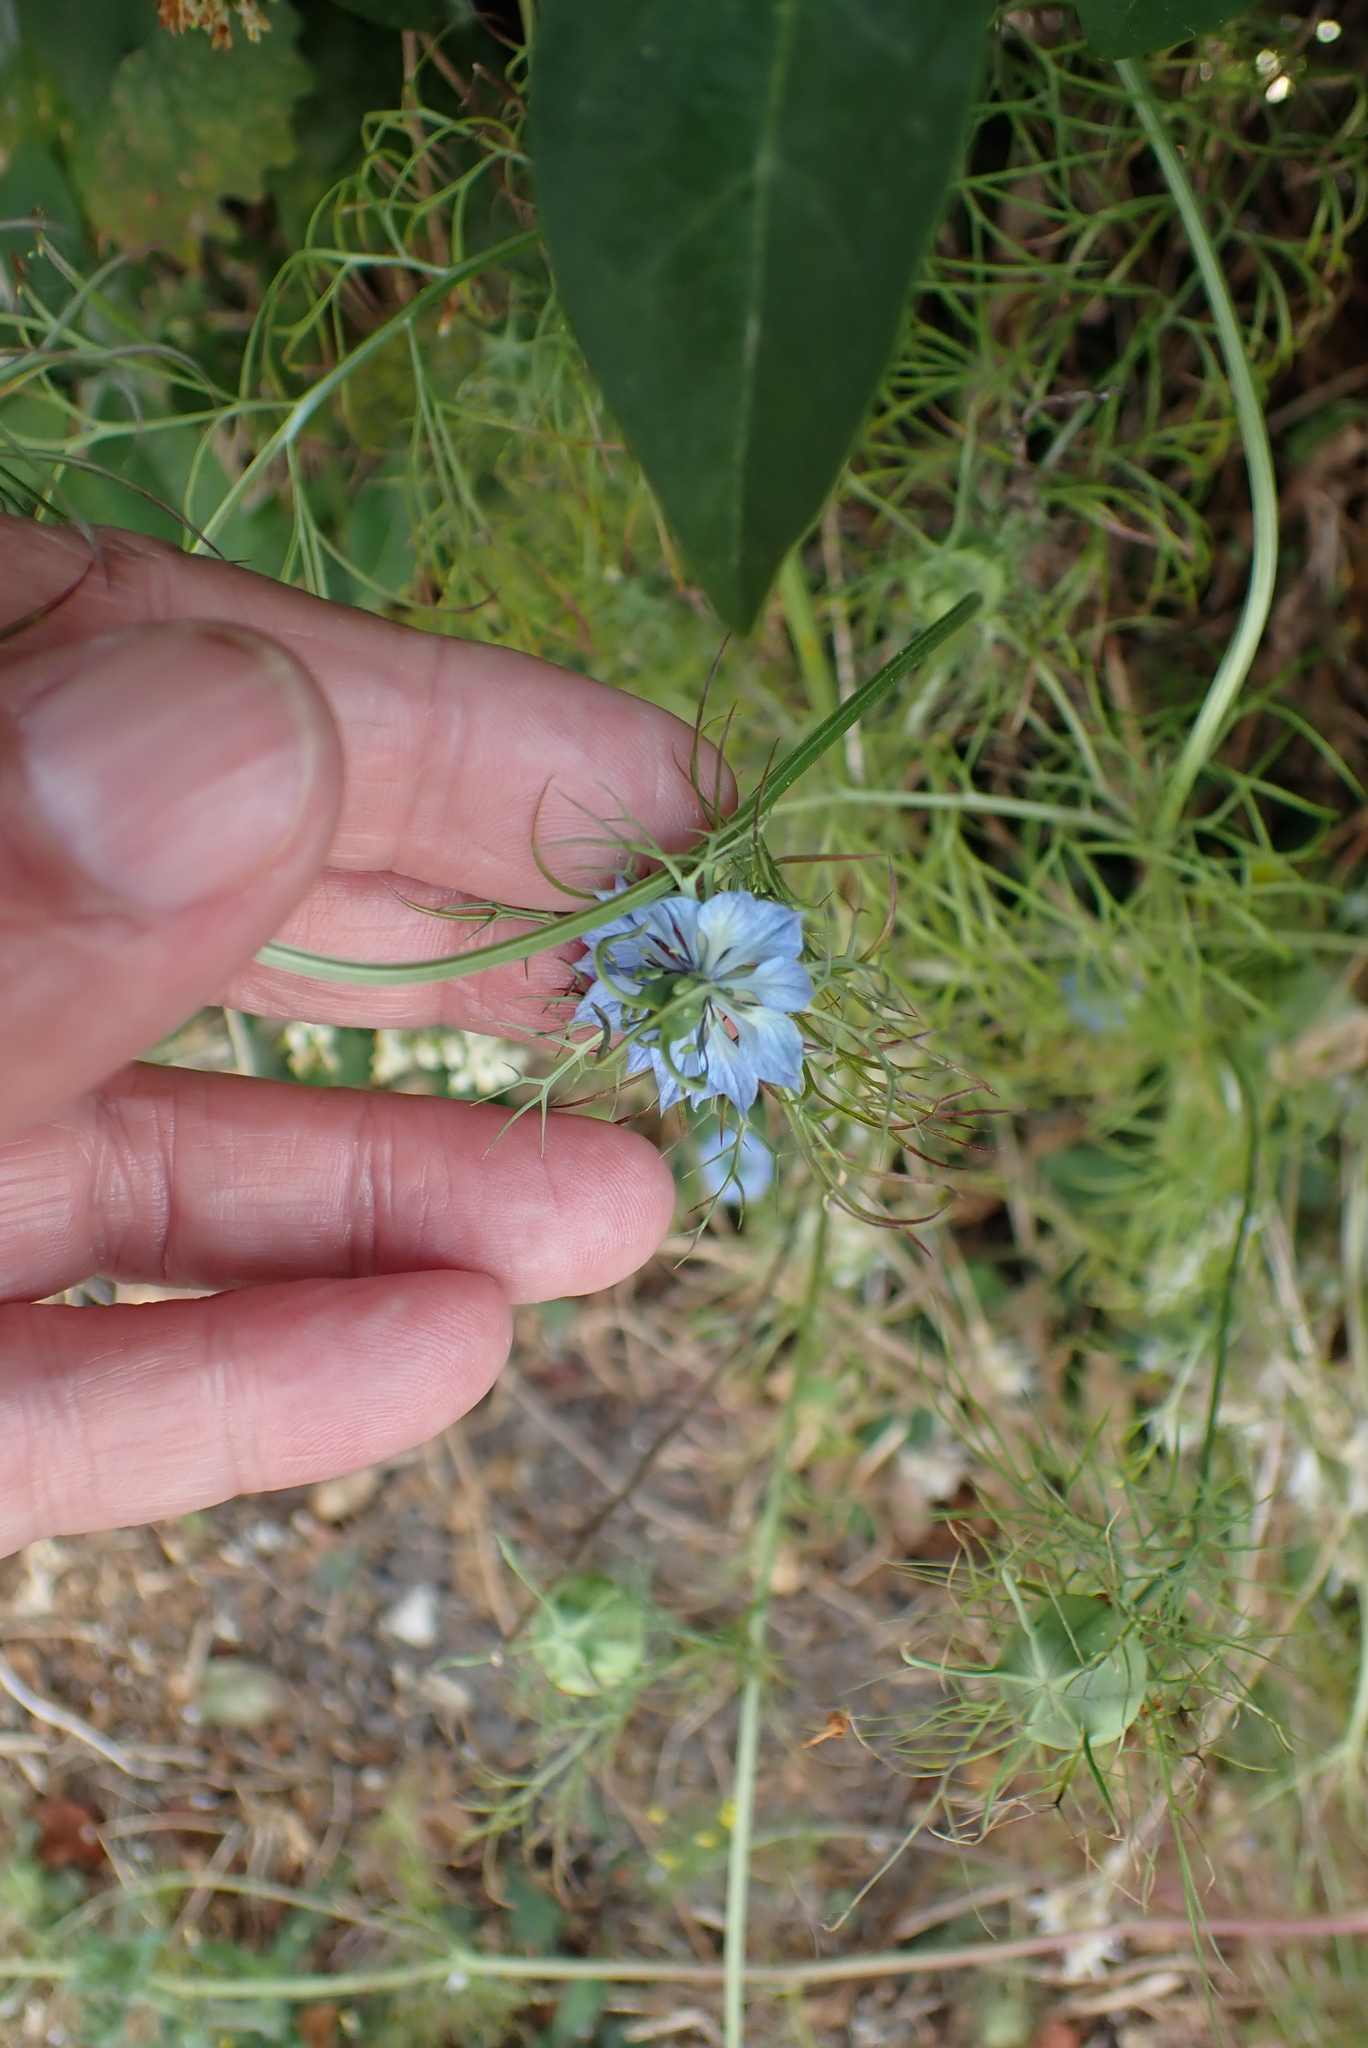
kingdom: Plantae
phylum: Tracheophyta
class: Magnoliopsida
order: Ranunculales
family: Ranunculaceae
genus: Nigella
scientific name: Nigella damascena
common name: Love-in-a-mist
